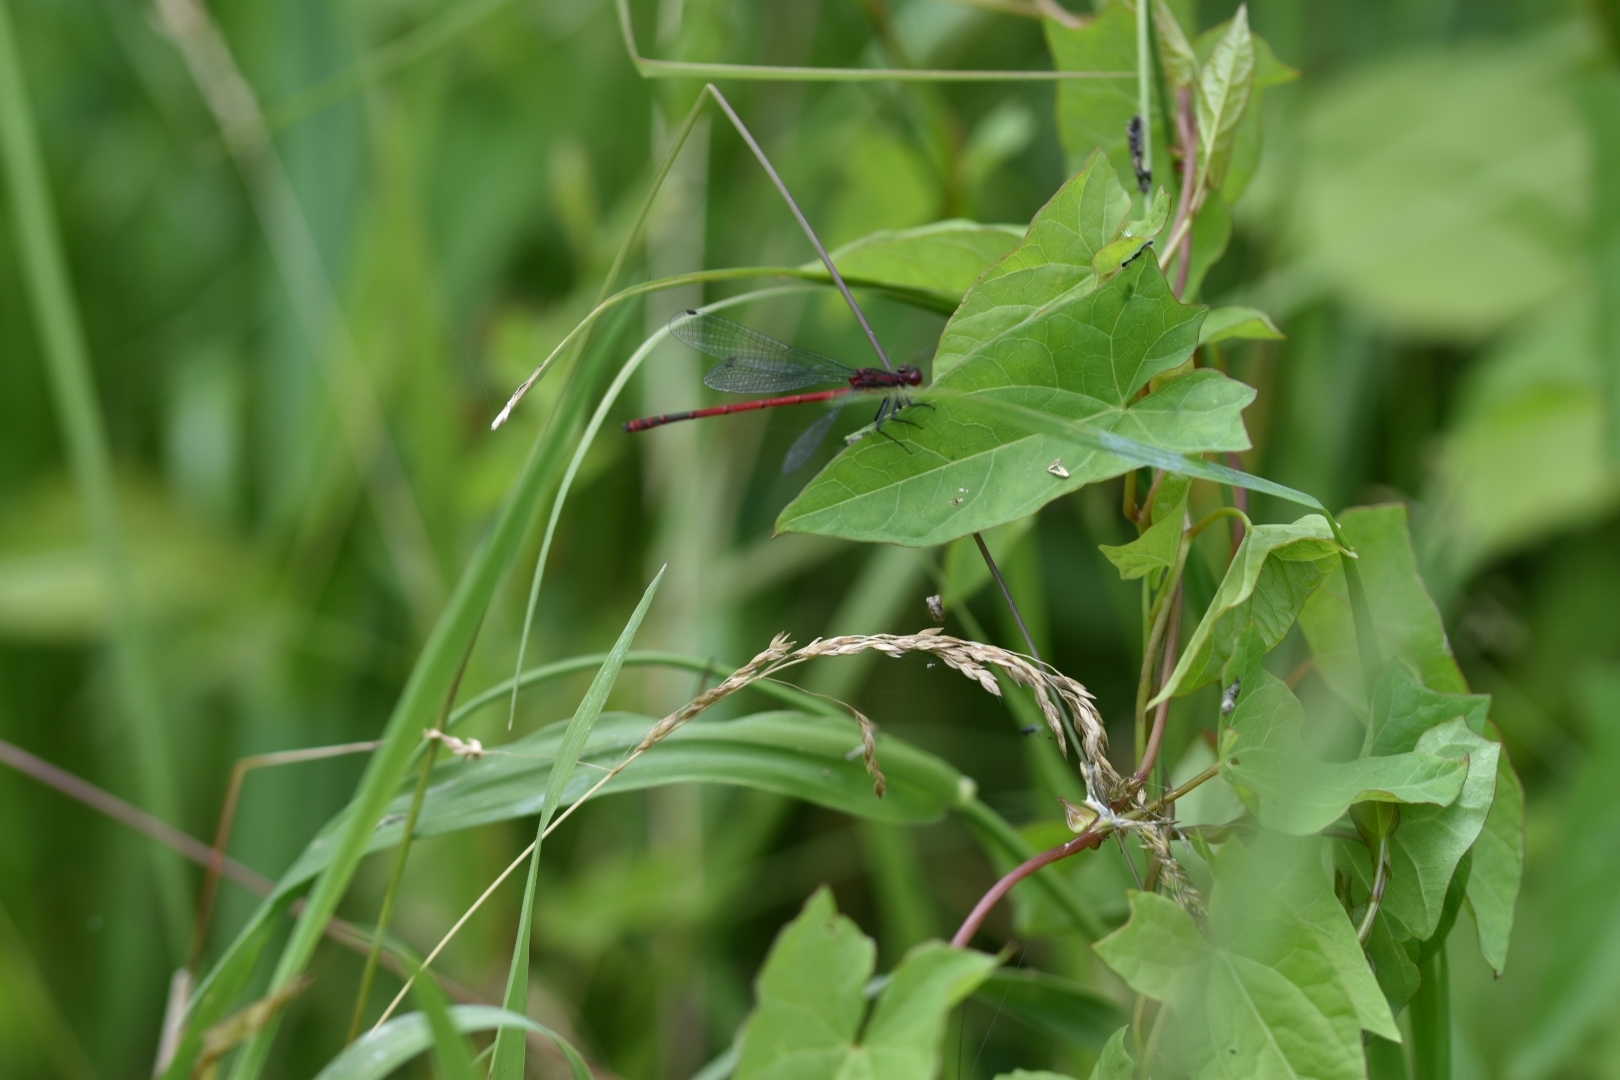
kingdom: Animalia
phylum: Arthropoda
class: Insecta
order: Odonata
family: Coenagrionidae
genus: Pyrrhosoma
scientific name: Pyrrhosoma nymphula
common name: Large red damsel
